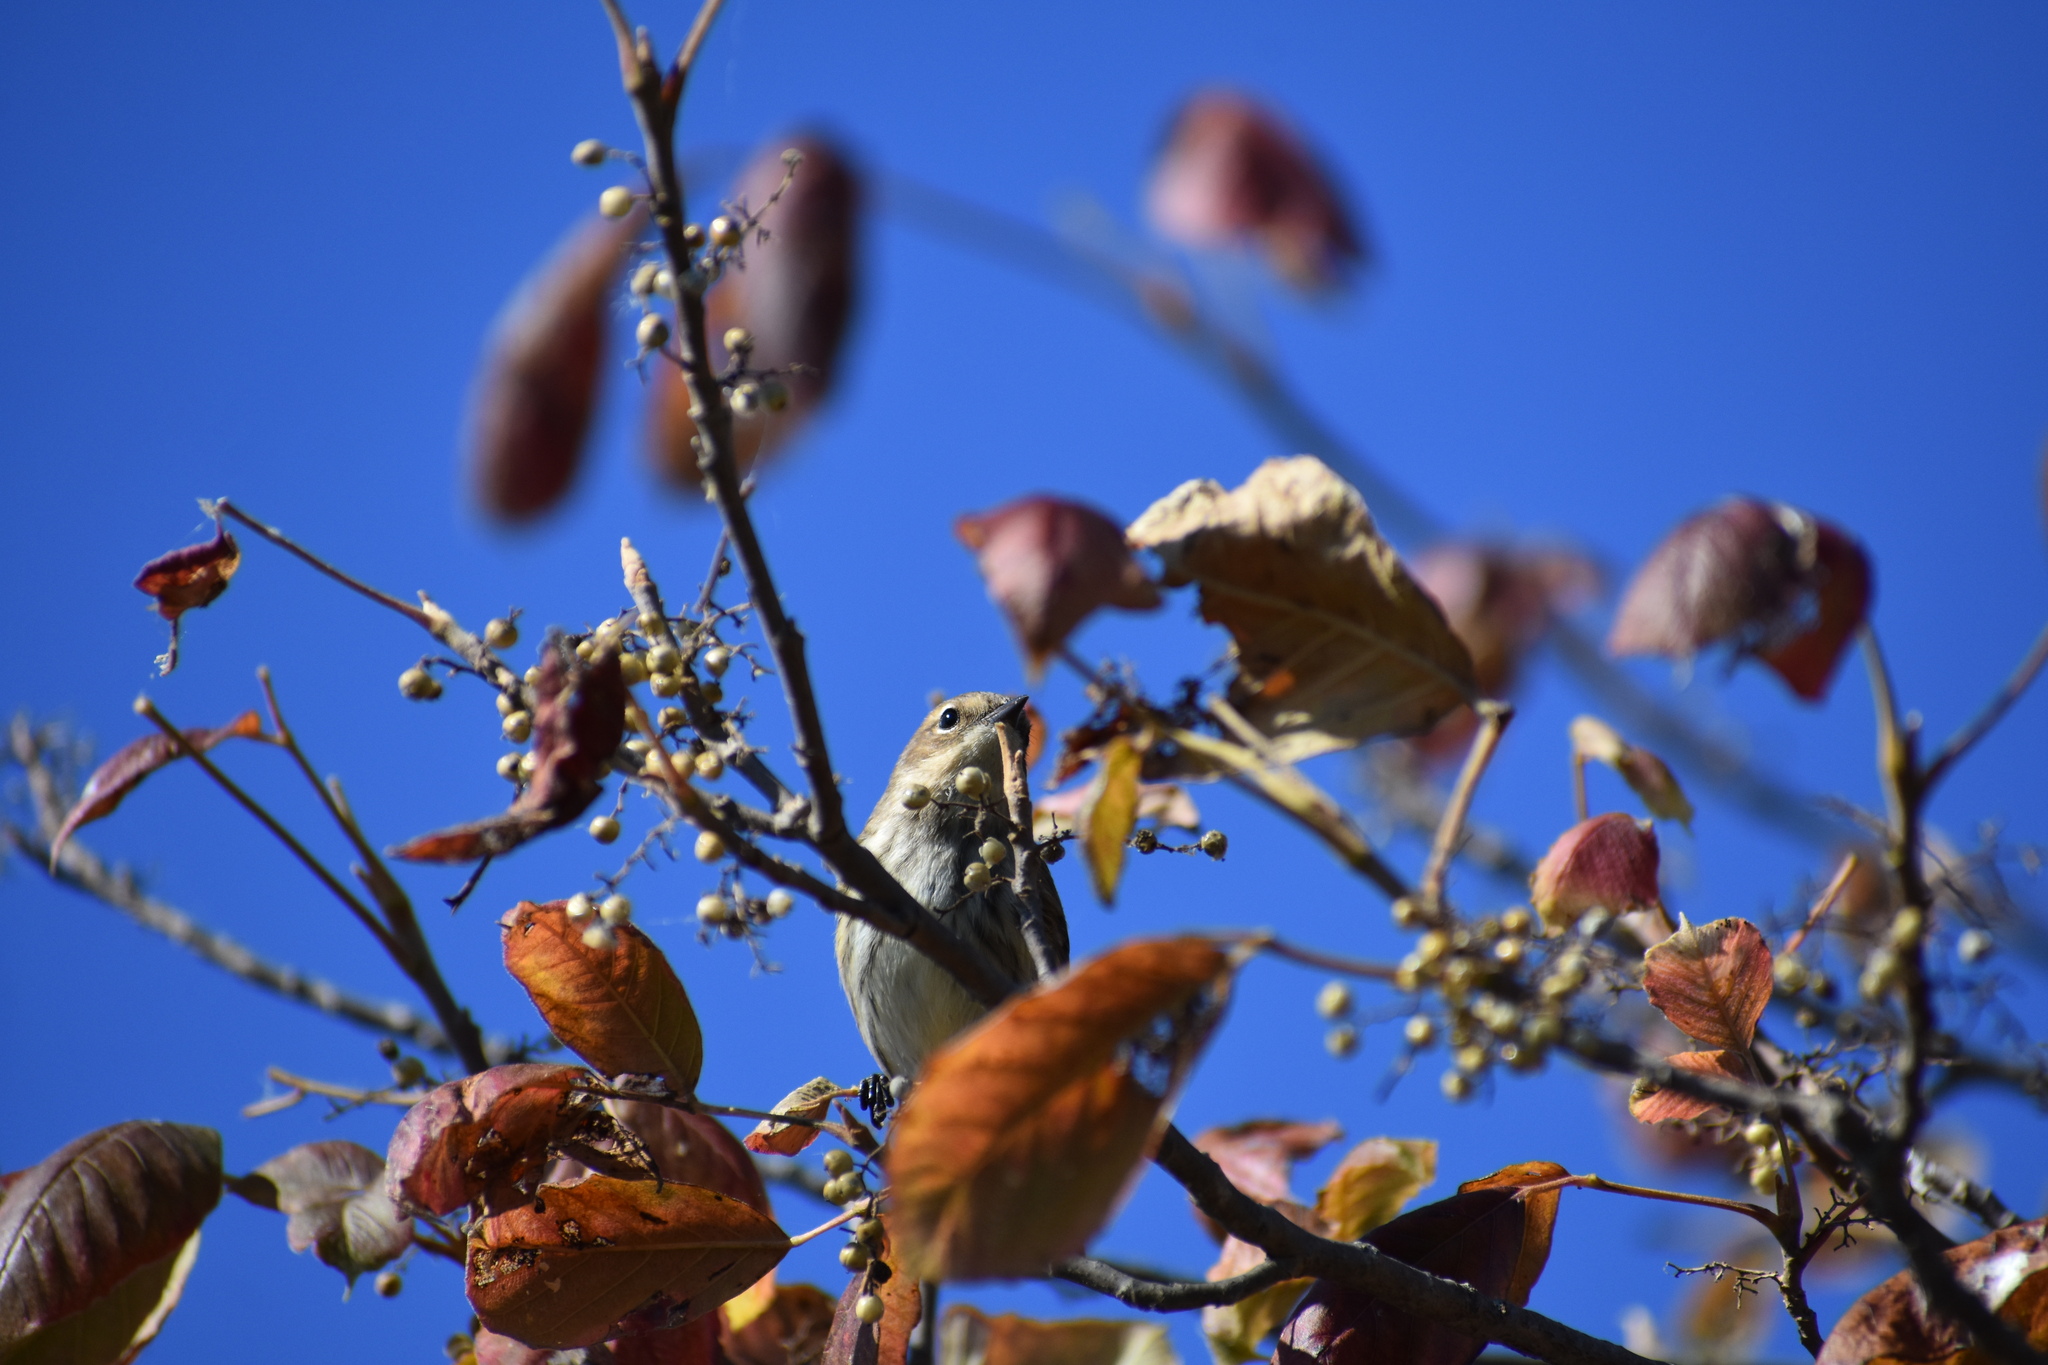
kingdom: Animalia
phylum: Chordata
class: Aves
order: Passeriformes
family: Parulidae
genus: Setophaga
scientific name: Setophaga coronata
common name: Myrtle warbler
